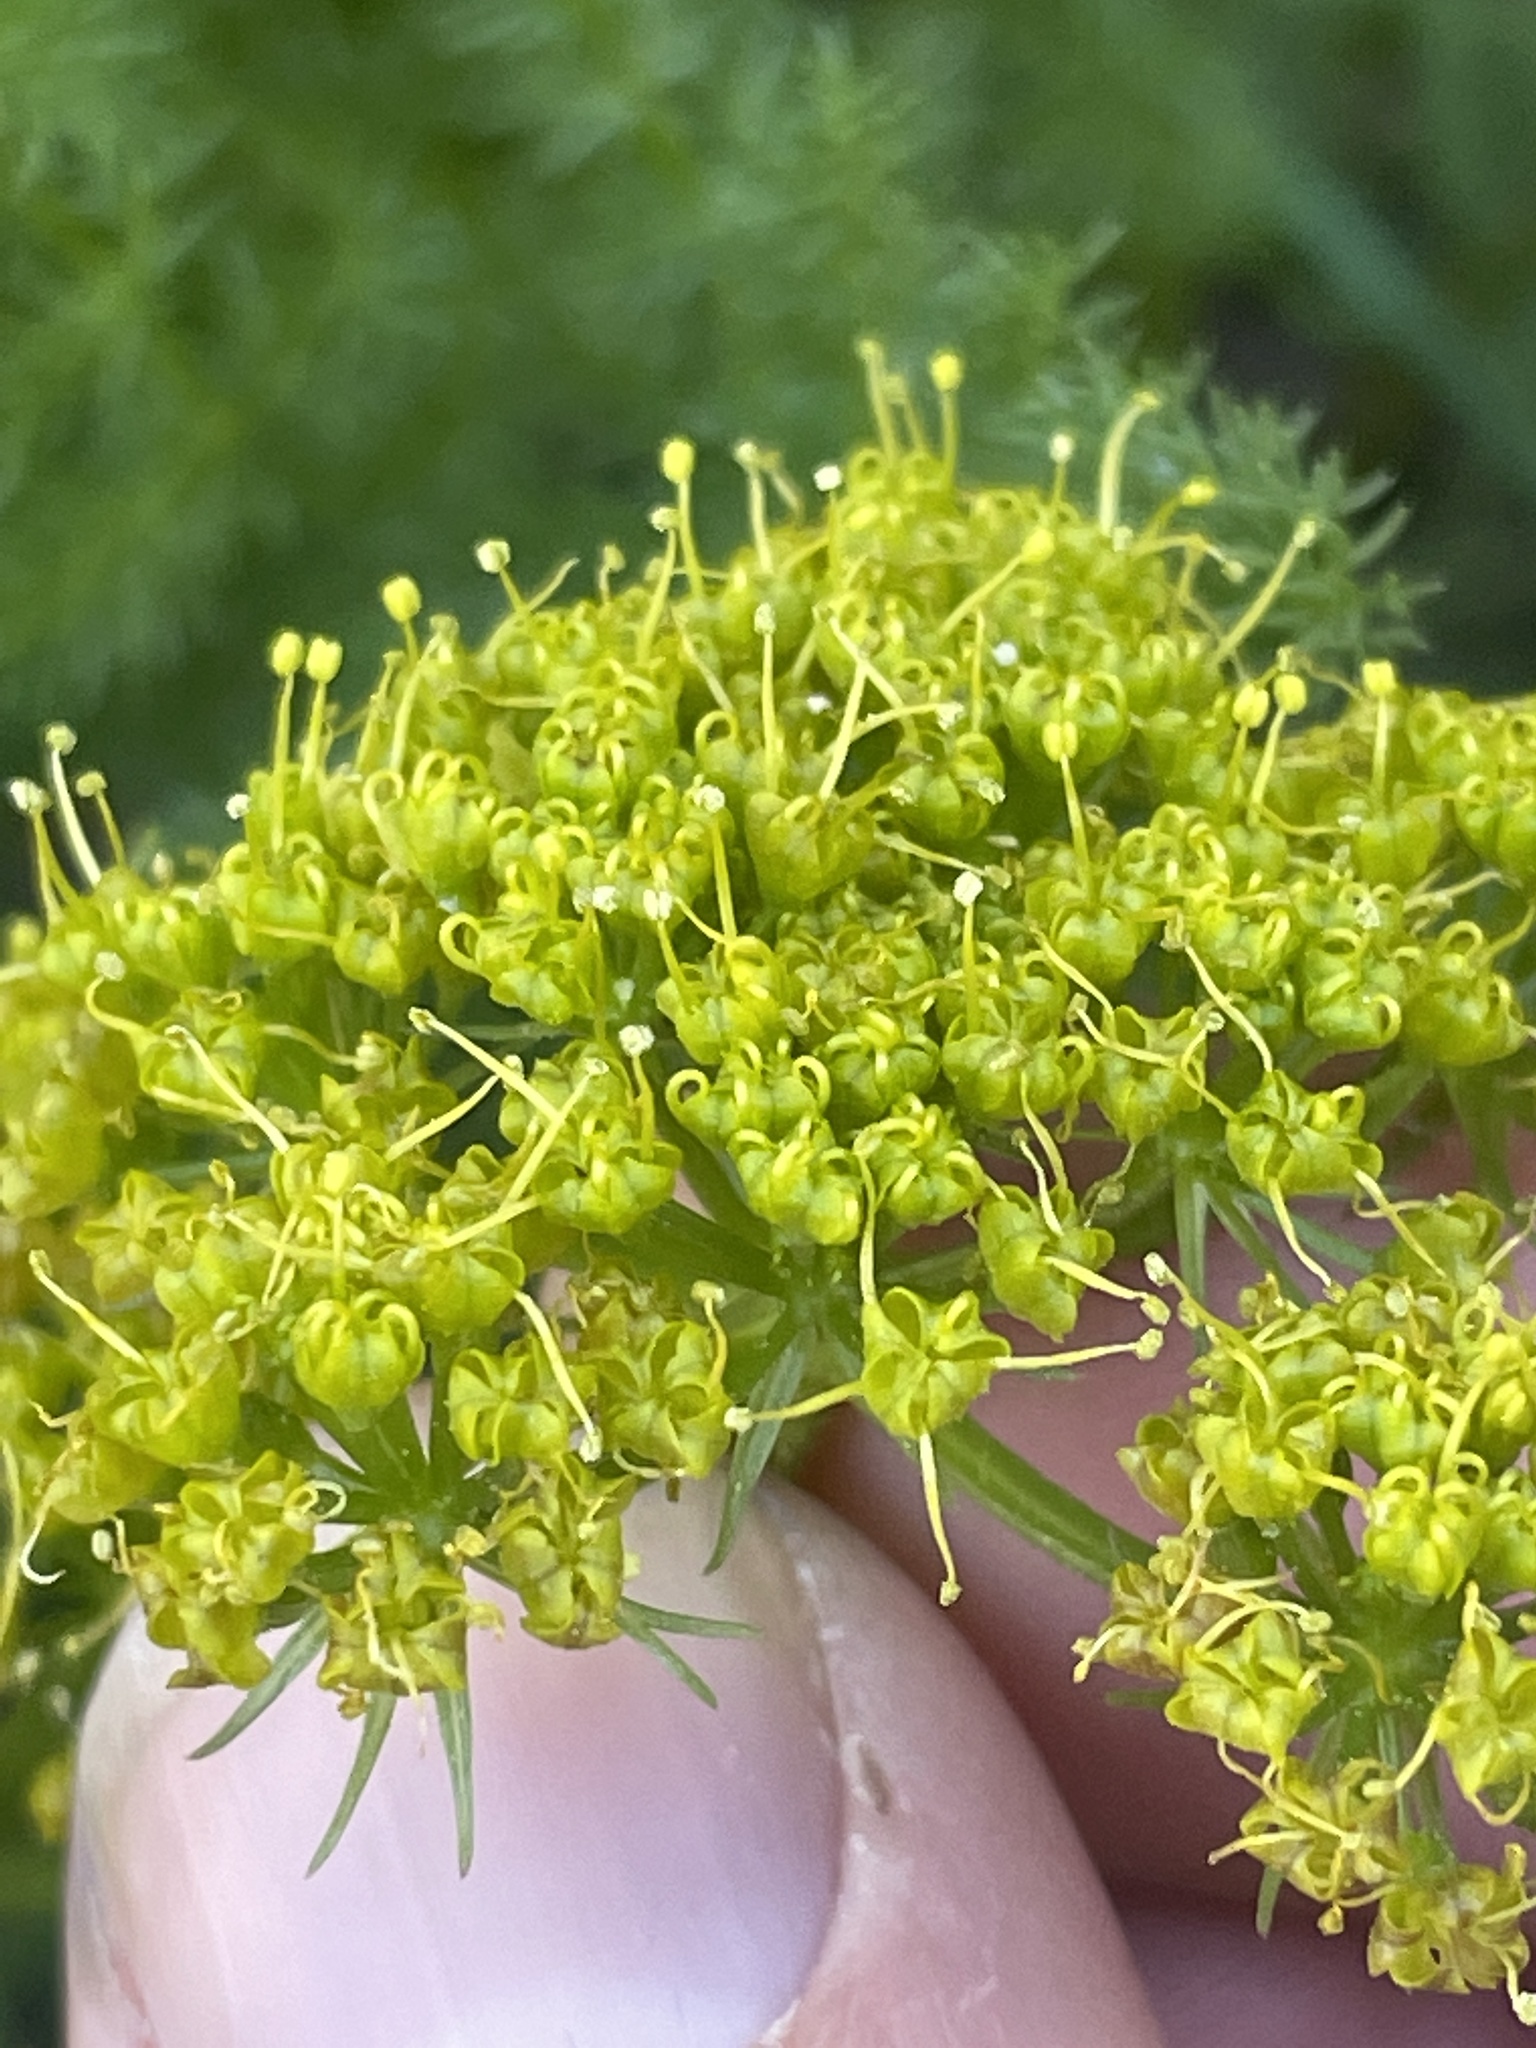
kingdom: Plantae
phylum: Tracheophyta
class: Magnoliopsida
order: Apiales
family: Apiaceae
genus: Lomatium
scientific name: Lomatium grayi
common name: Milfoil lomatium
